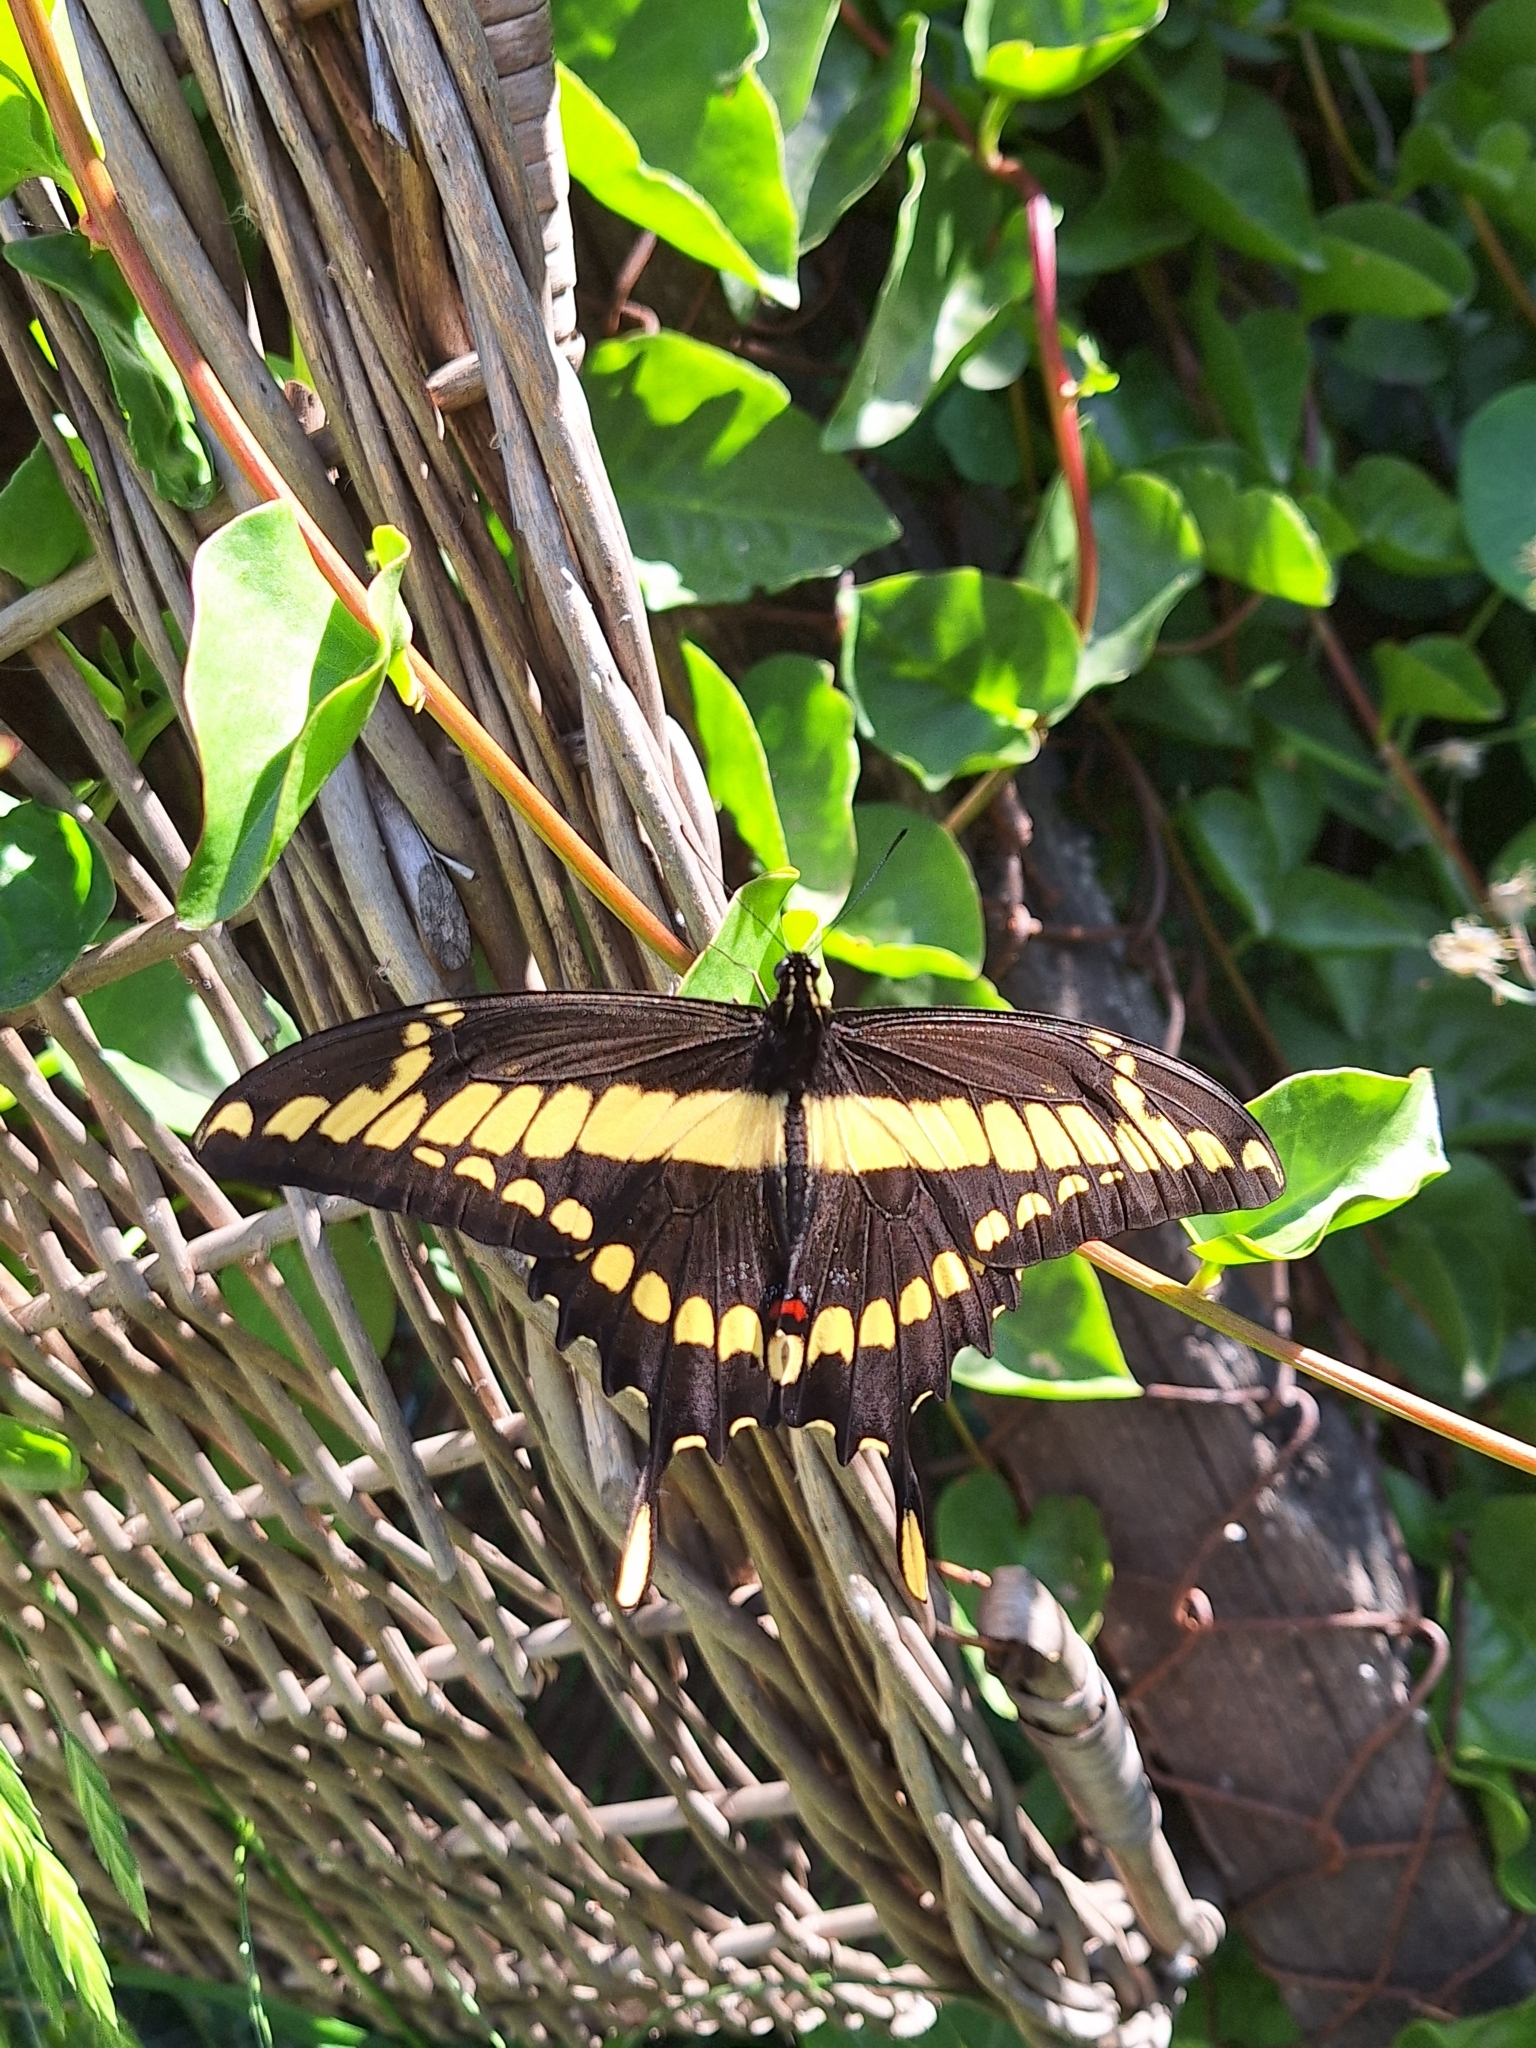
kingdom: Animalia
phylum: Arthropoda
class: Insecta
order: Lepidoptera
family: Papilionidae
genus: Papilio
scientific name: Papilio thoas
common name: King swallowtail
